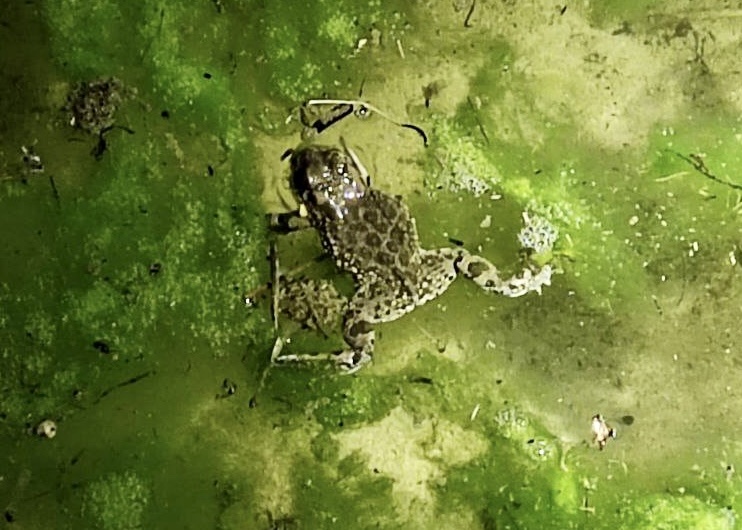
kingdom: Animalia
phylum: Chordata
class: Amphibia
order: Anura
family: Bufonidae
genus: Bufotes
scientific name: Bufotes viridis
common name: European green toad
